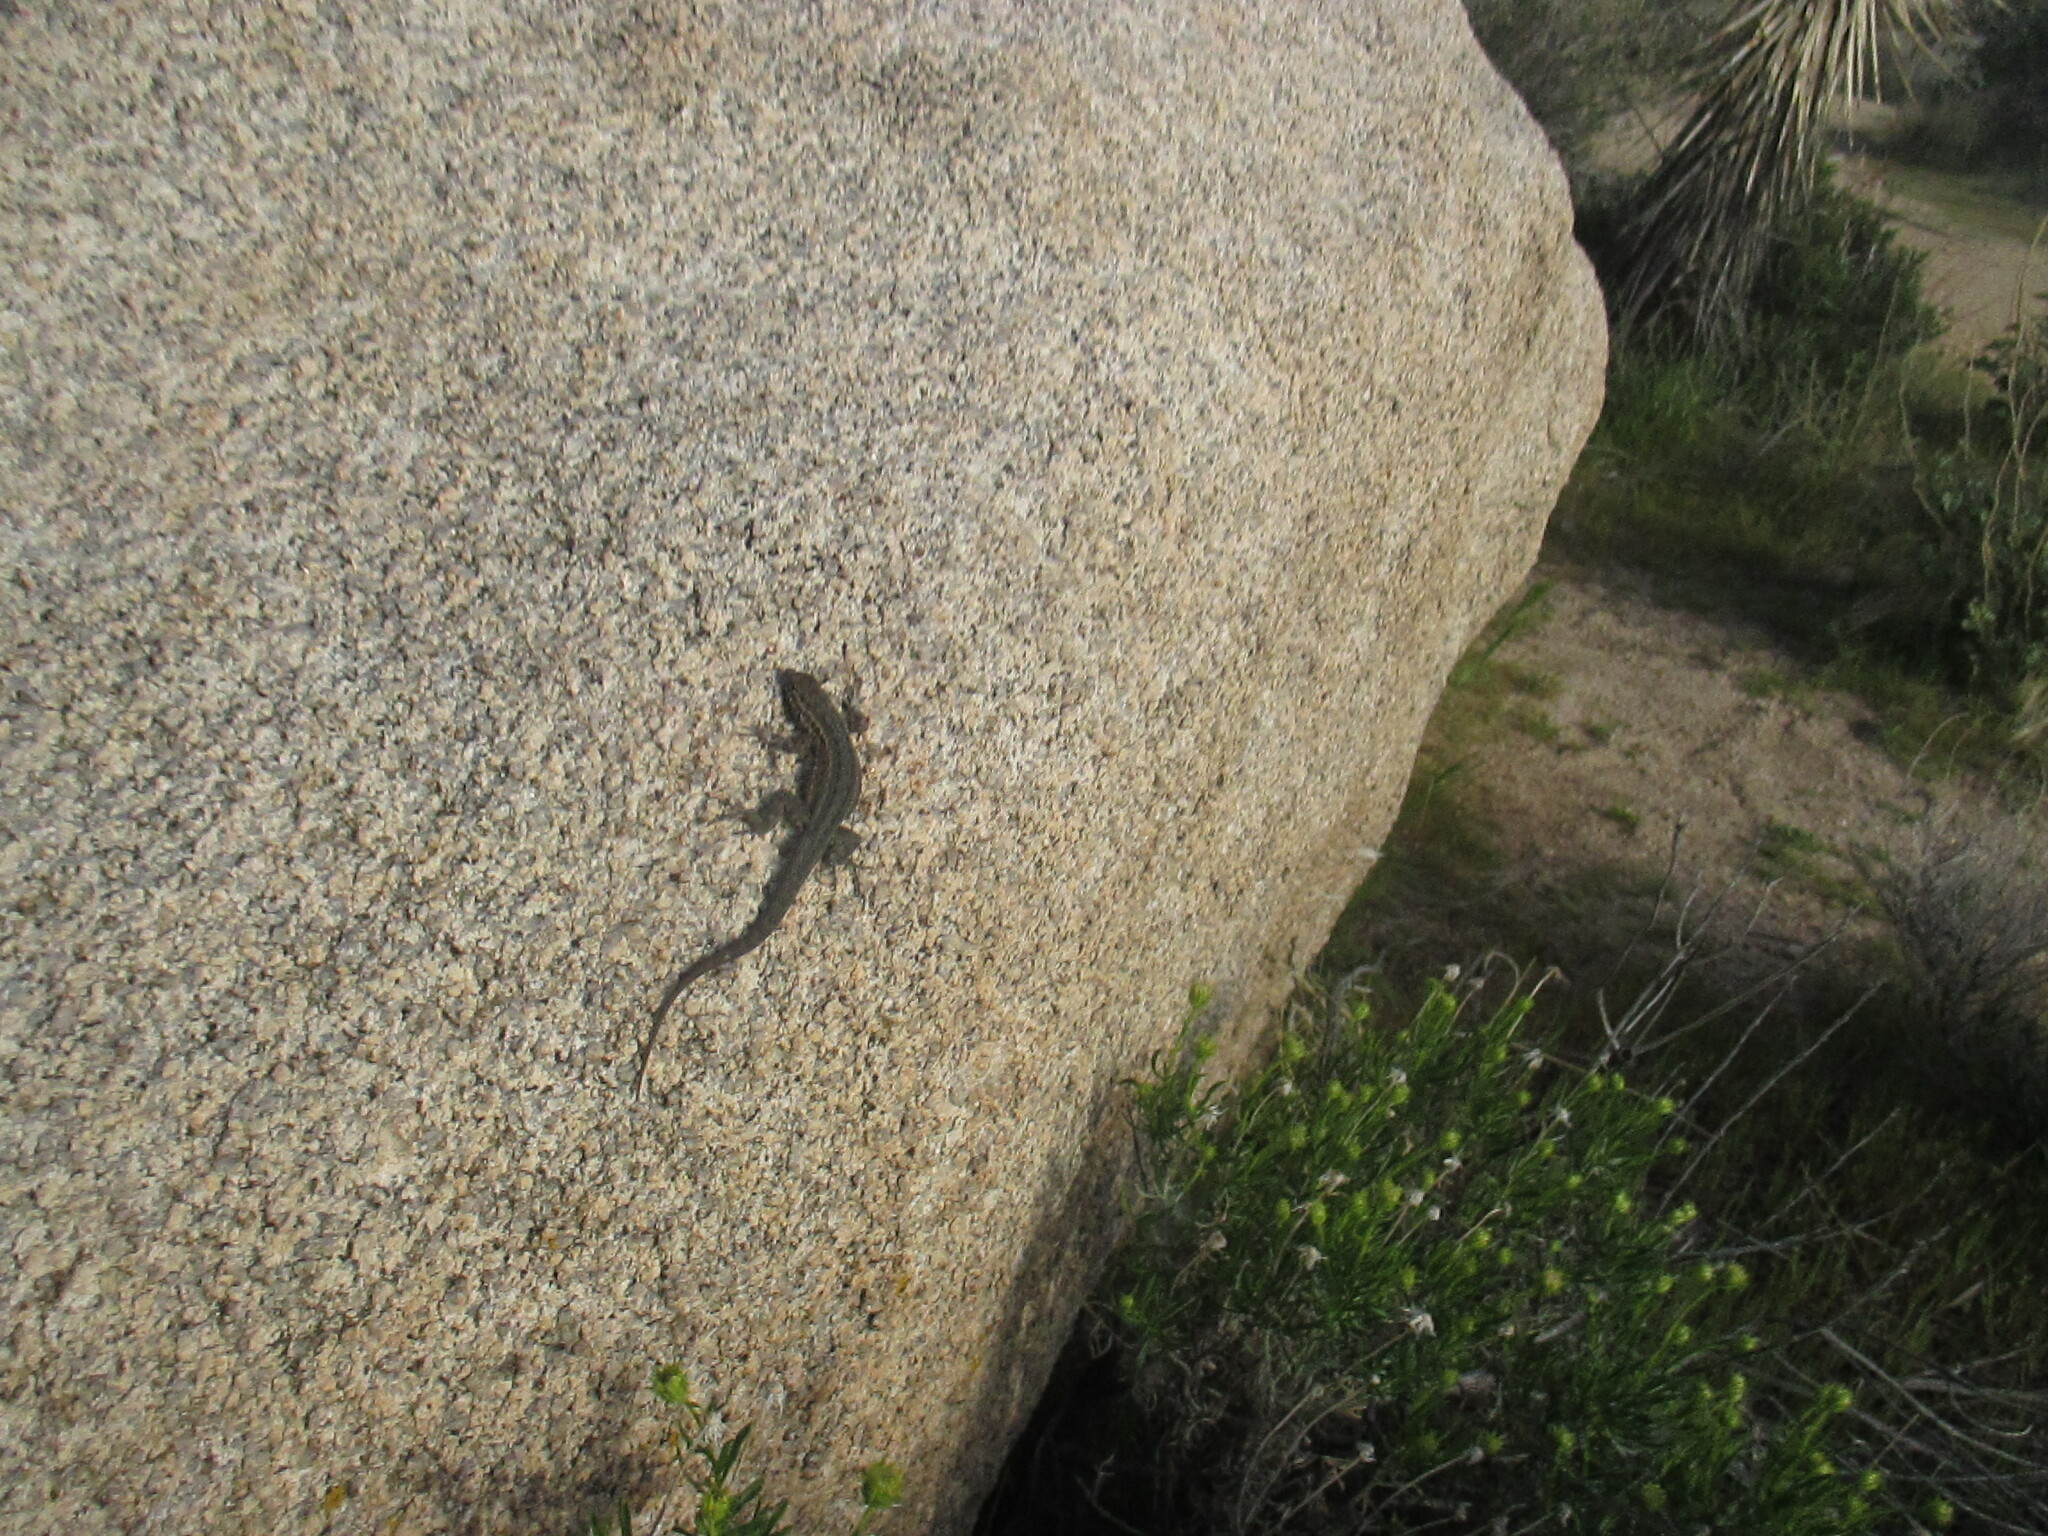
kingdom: Animalia
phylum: Chordata
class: Squamata
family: Phrynosomatidae
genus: Uta
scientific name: Uta stansburiana
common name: Side-blotched lizard
